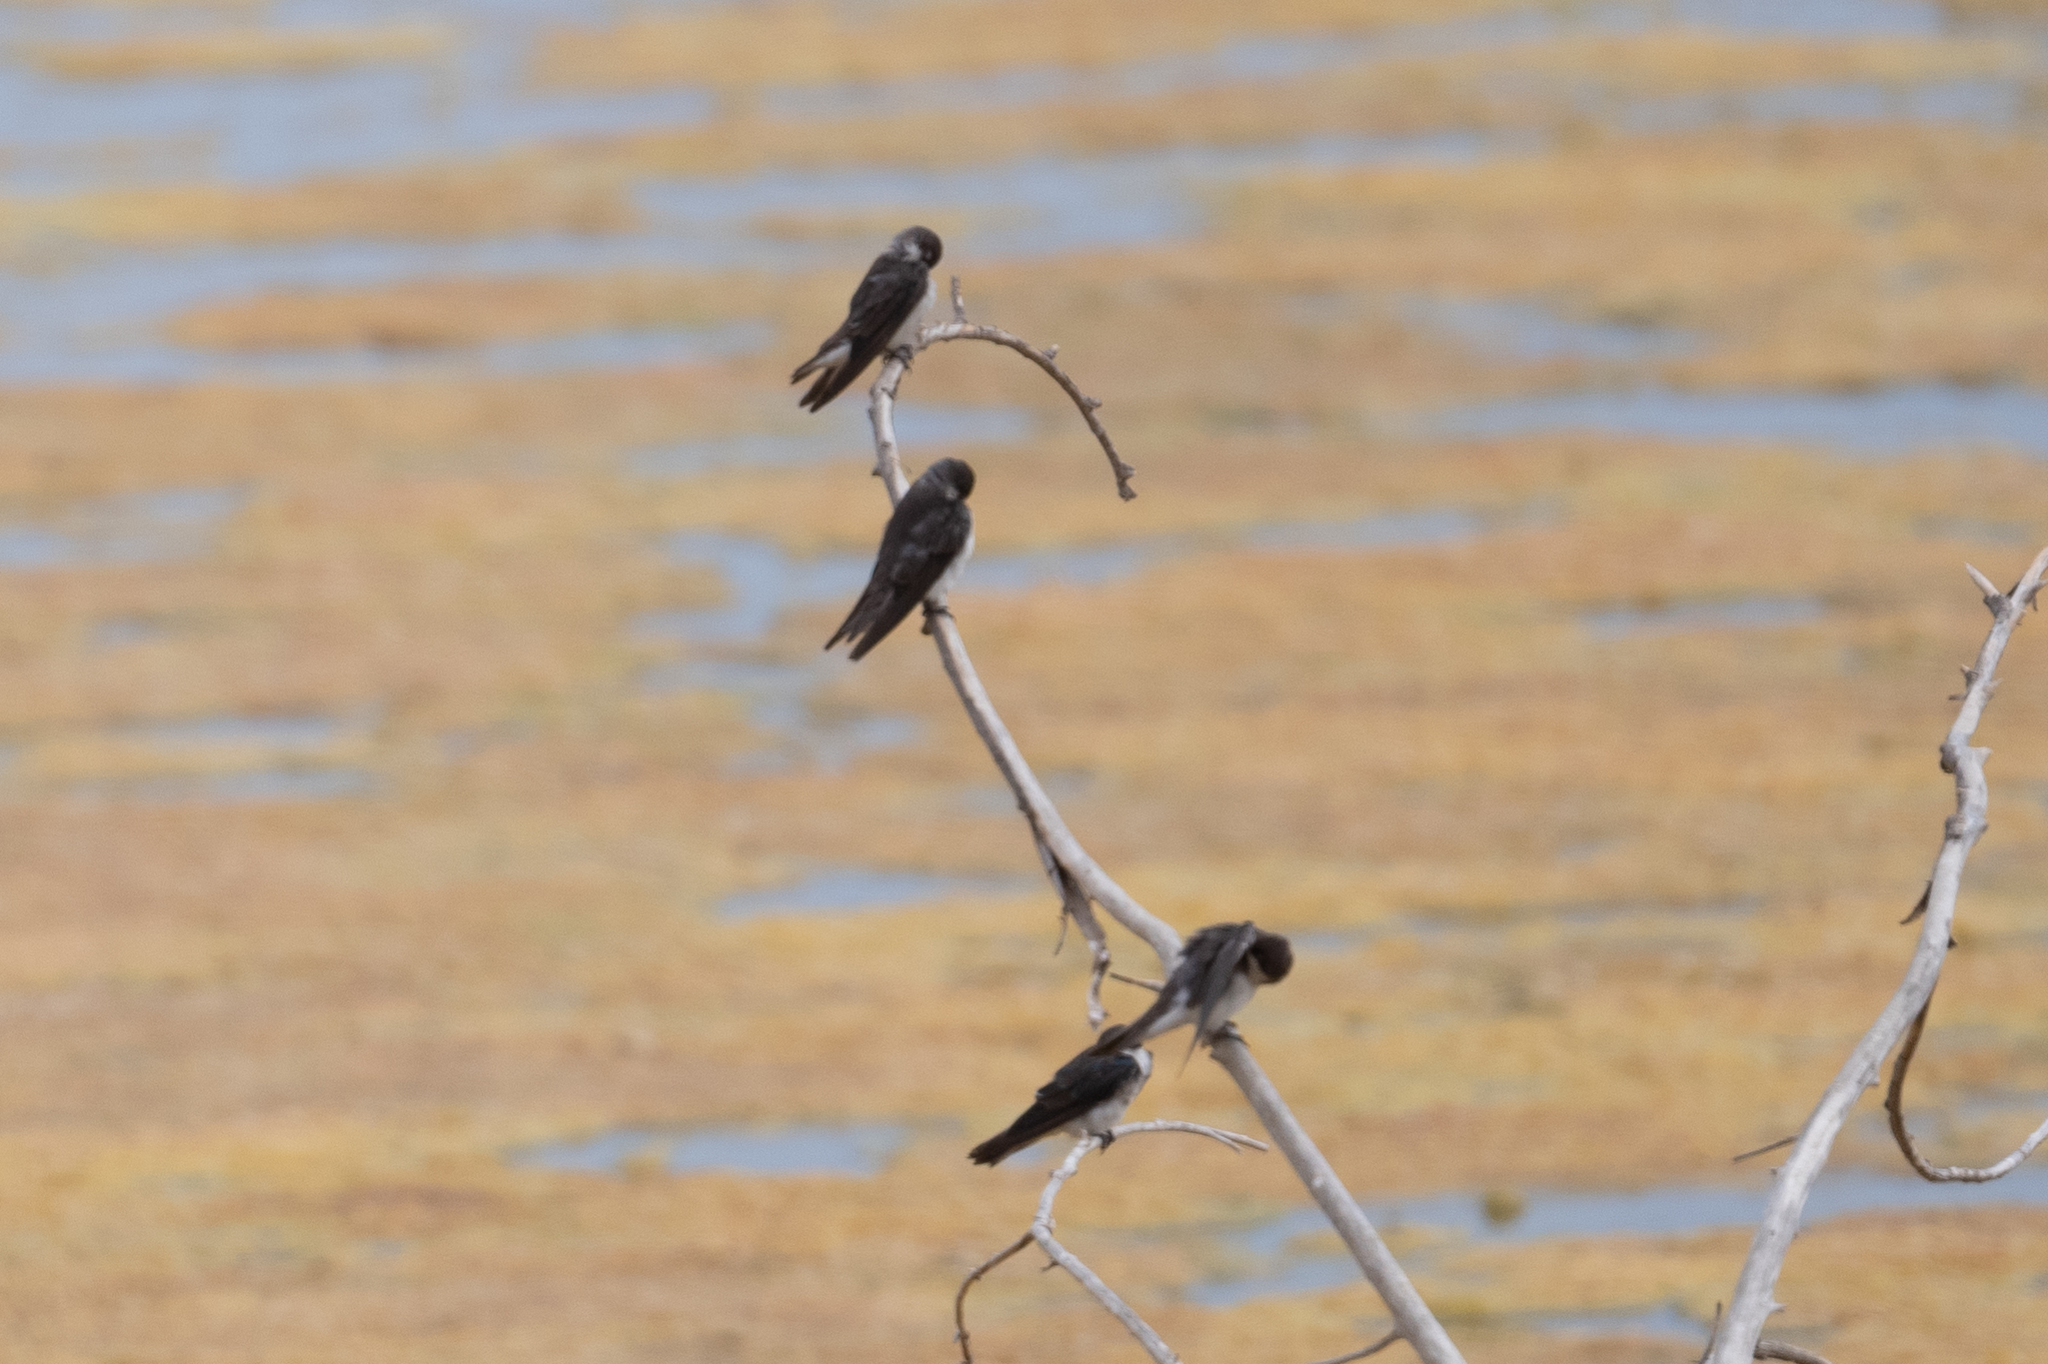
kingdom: Animalia
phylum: Chordata
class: Aves
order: Passeriformes
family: Hirundinidae
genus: Tachycineta
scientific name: Tachycineta bicolor
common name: Tree swallow
